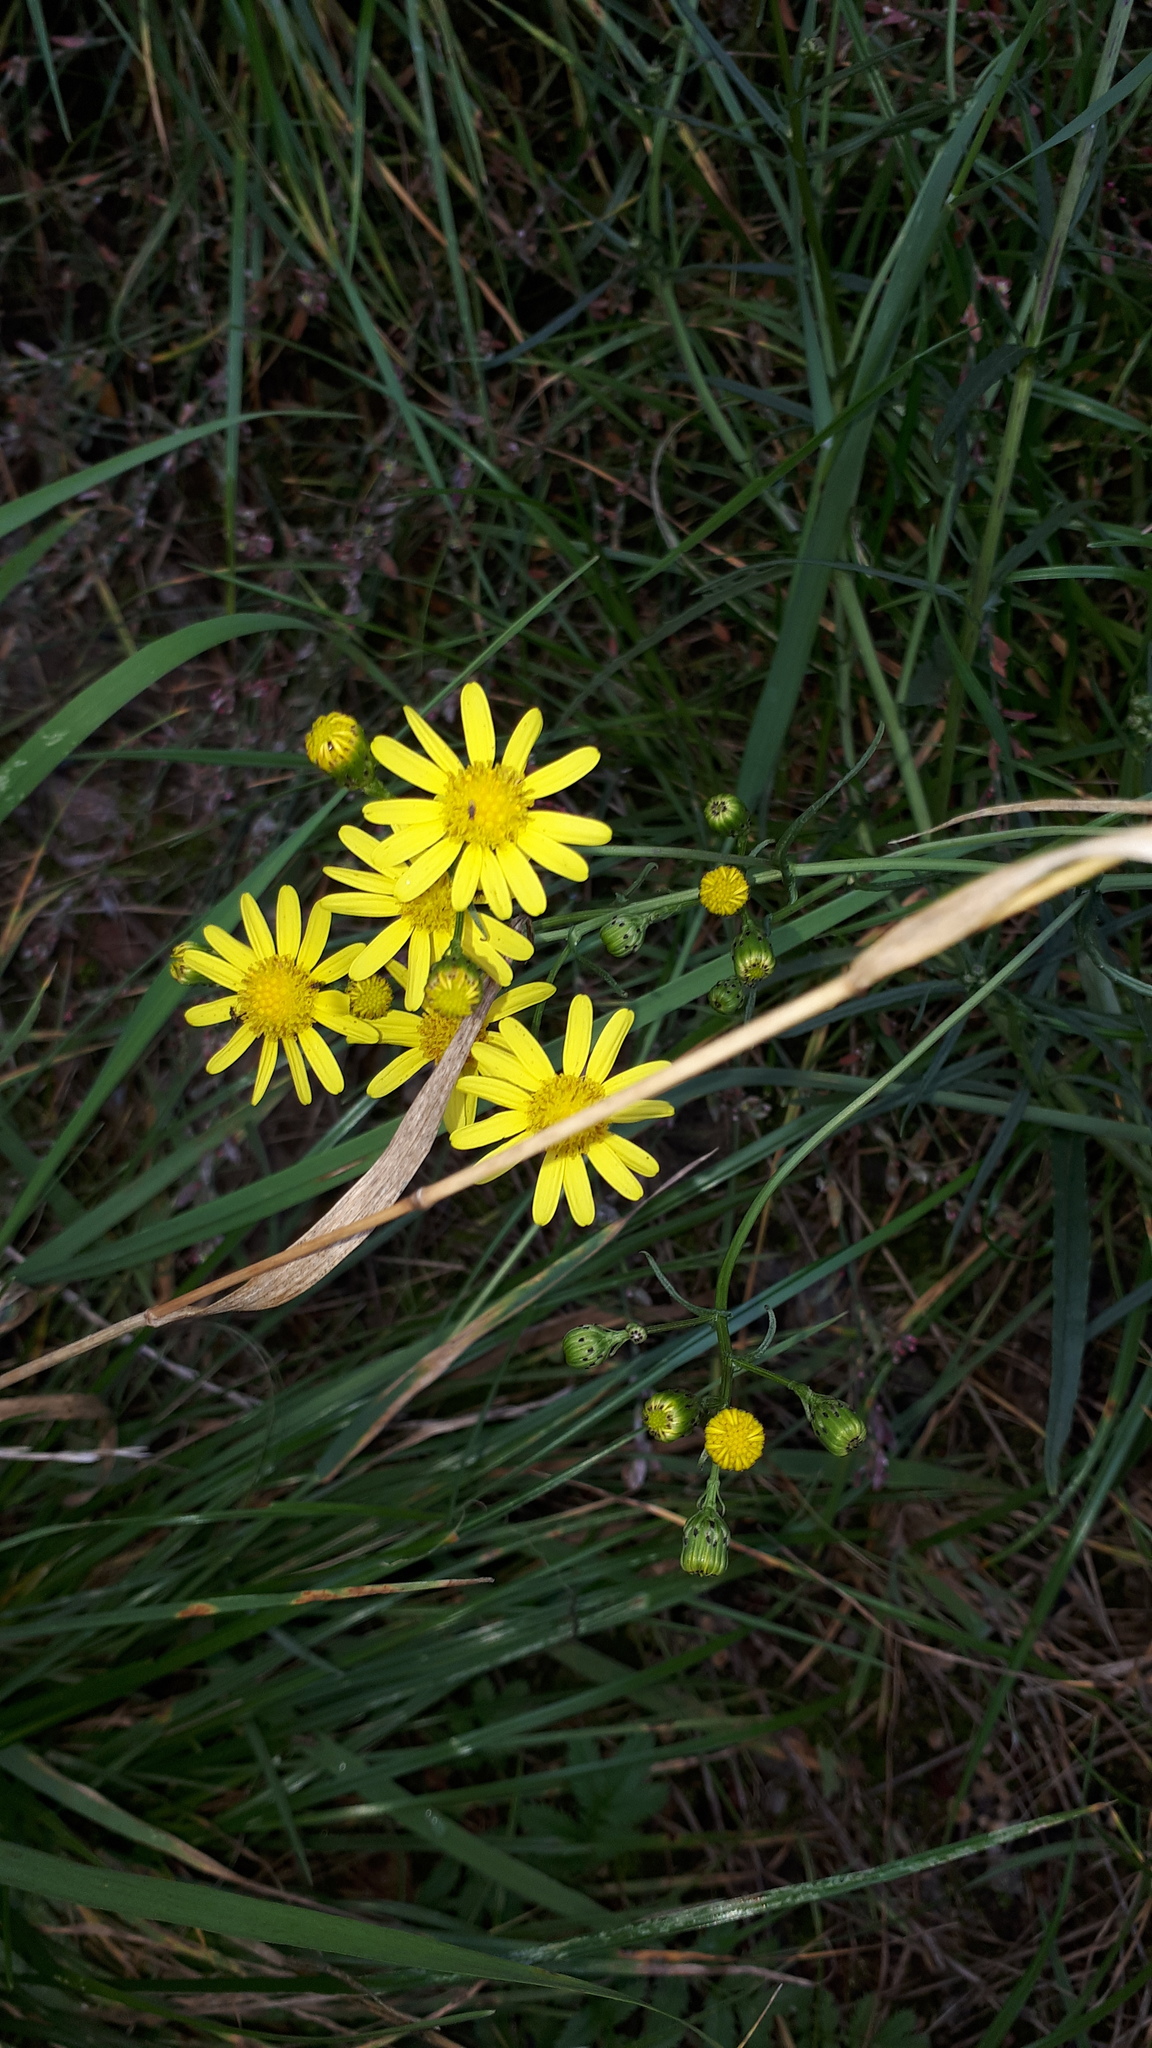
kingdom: Plantae
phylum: Tracheophyta
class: Magnoliopsida
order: Asterales
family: Asteraceae
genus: Senecio
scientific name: Senecio inaequidens
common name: Narrow-leaved ragwort
